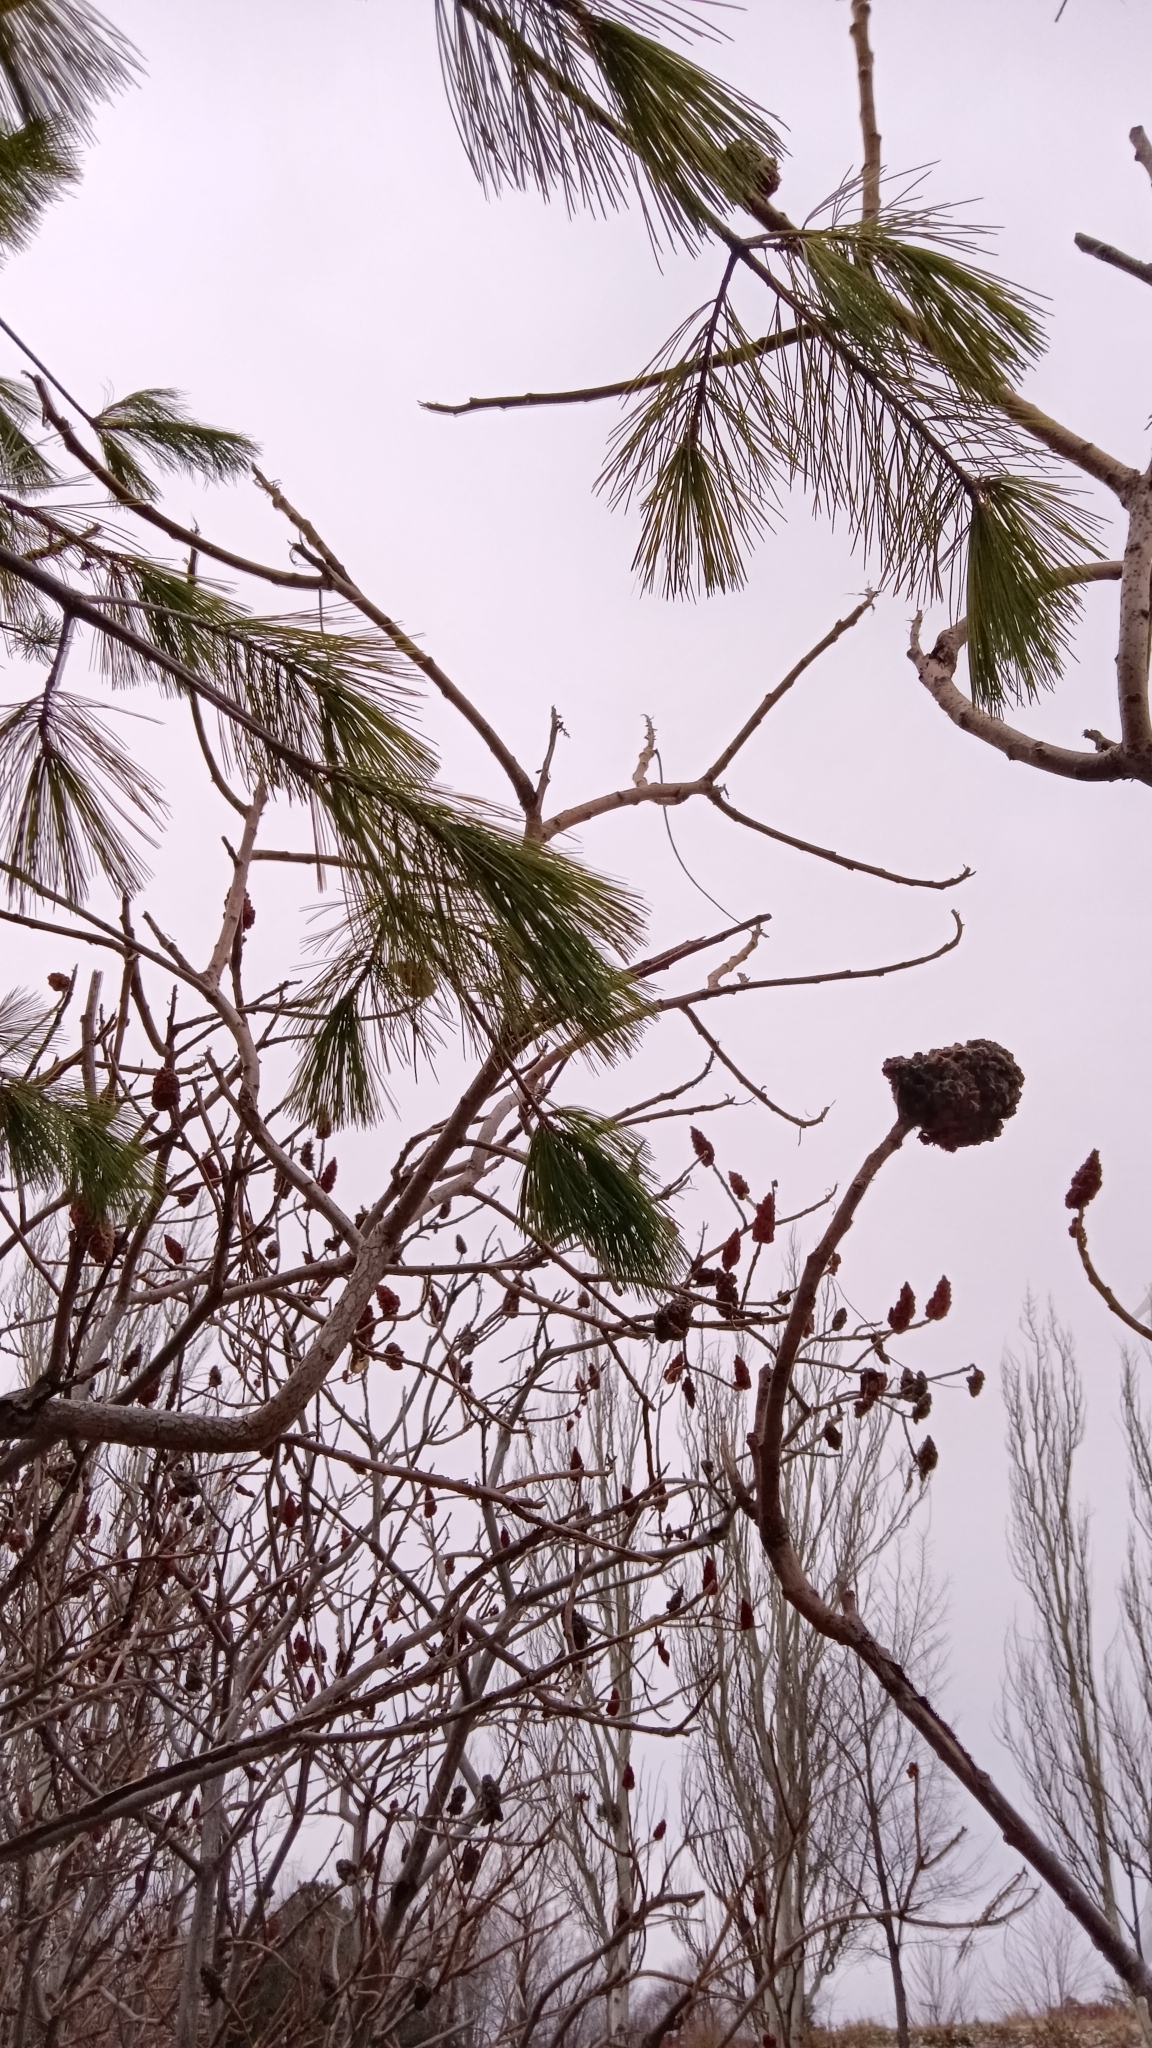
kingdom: Plantae
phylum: Tracheophyta
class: Pinopsida
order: Pinales
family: Pinaceae
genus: Pinus
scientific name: Pinus strobus
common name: Weymouth pine
